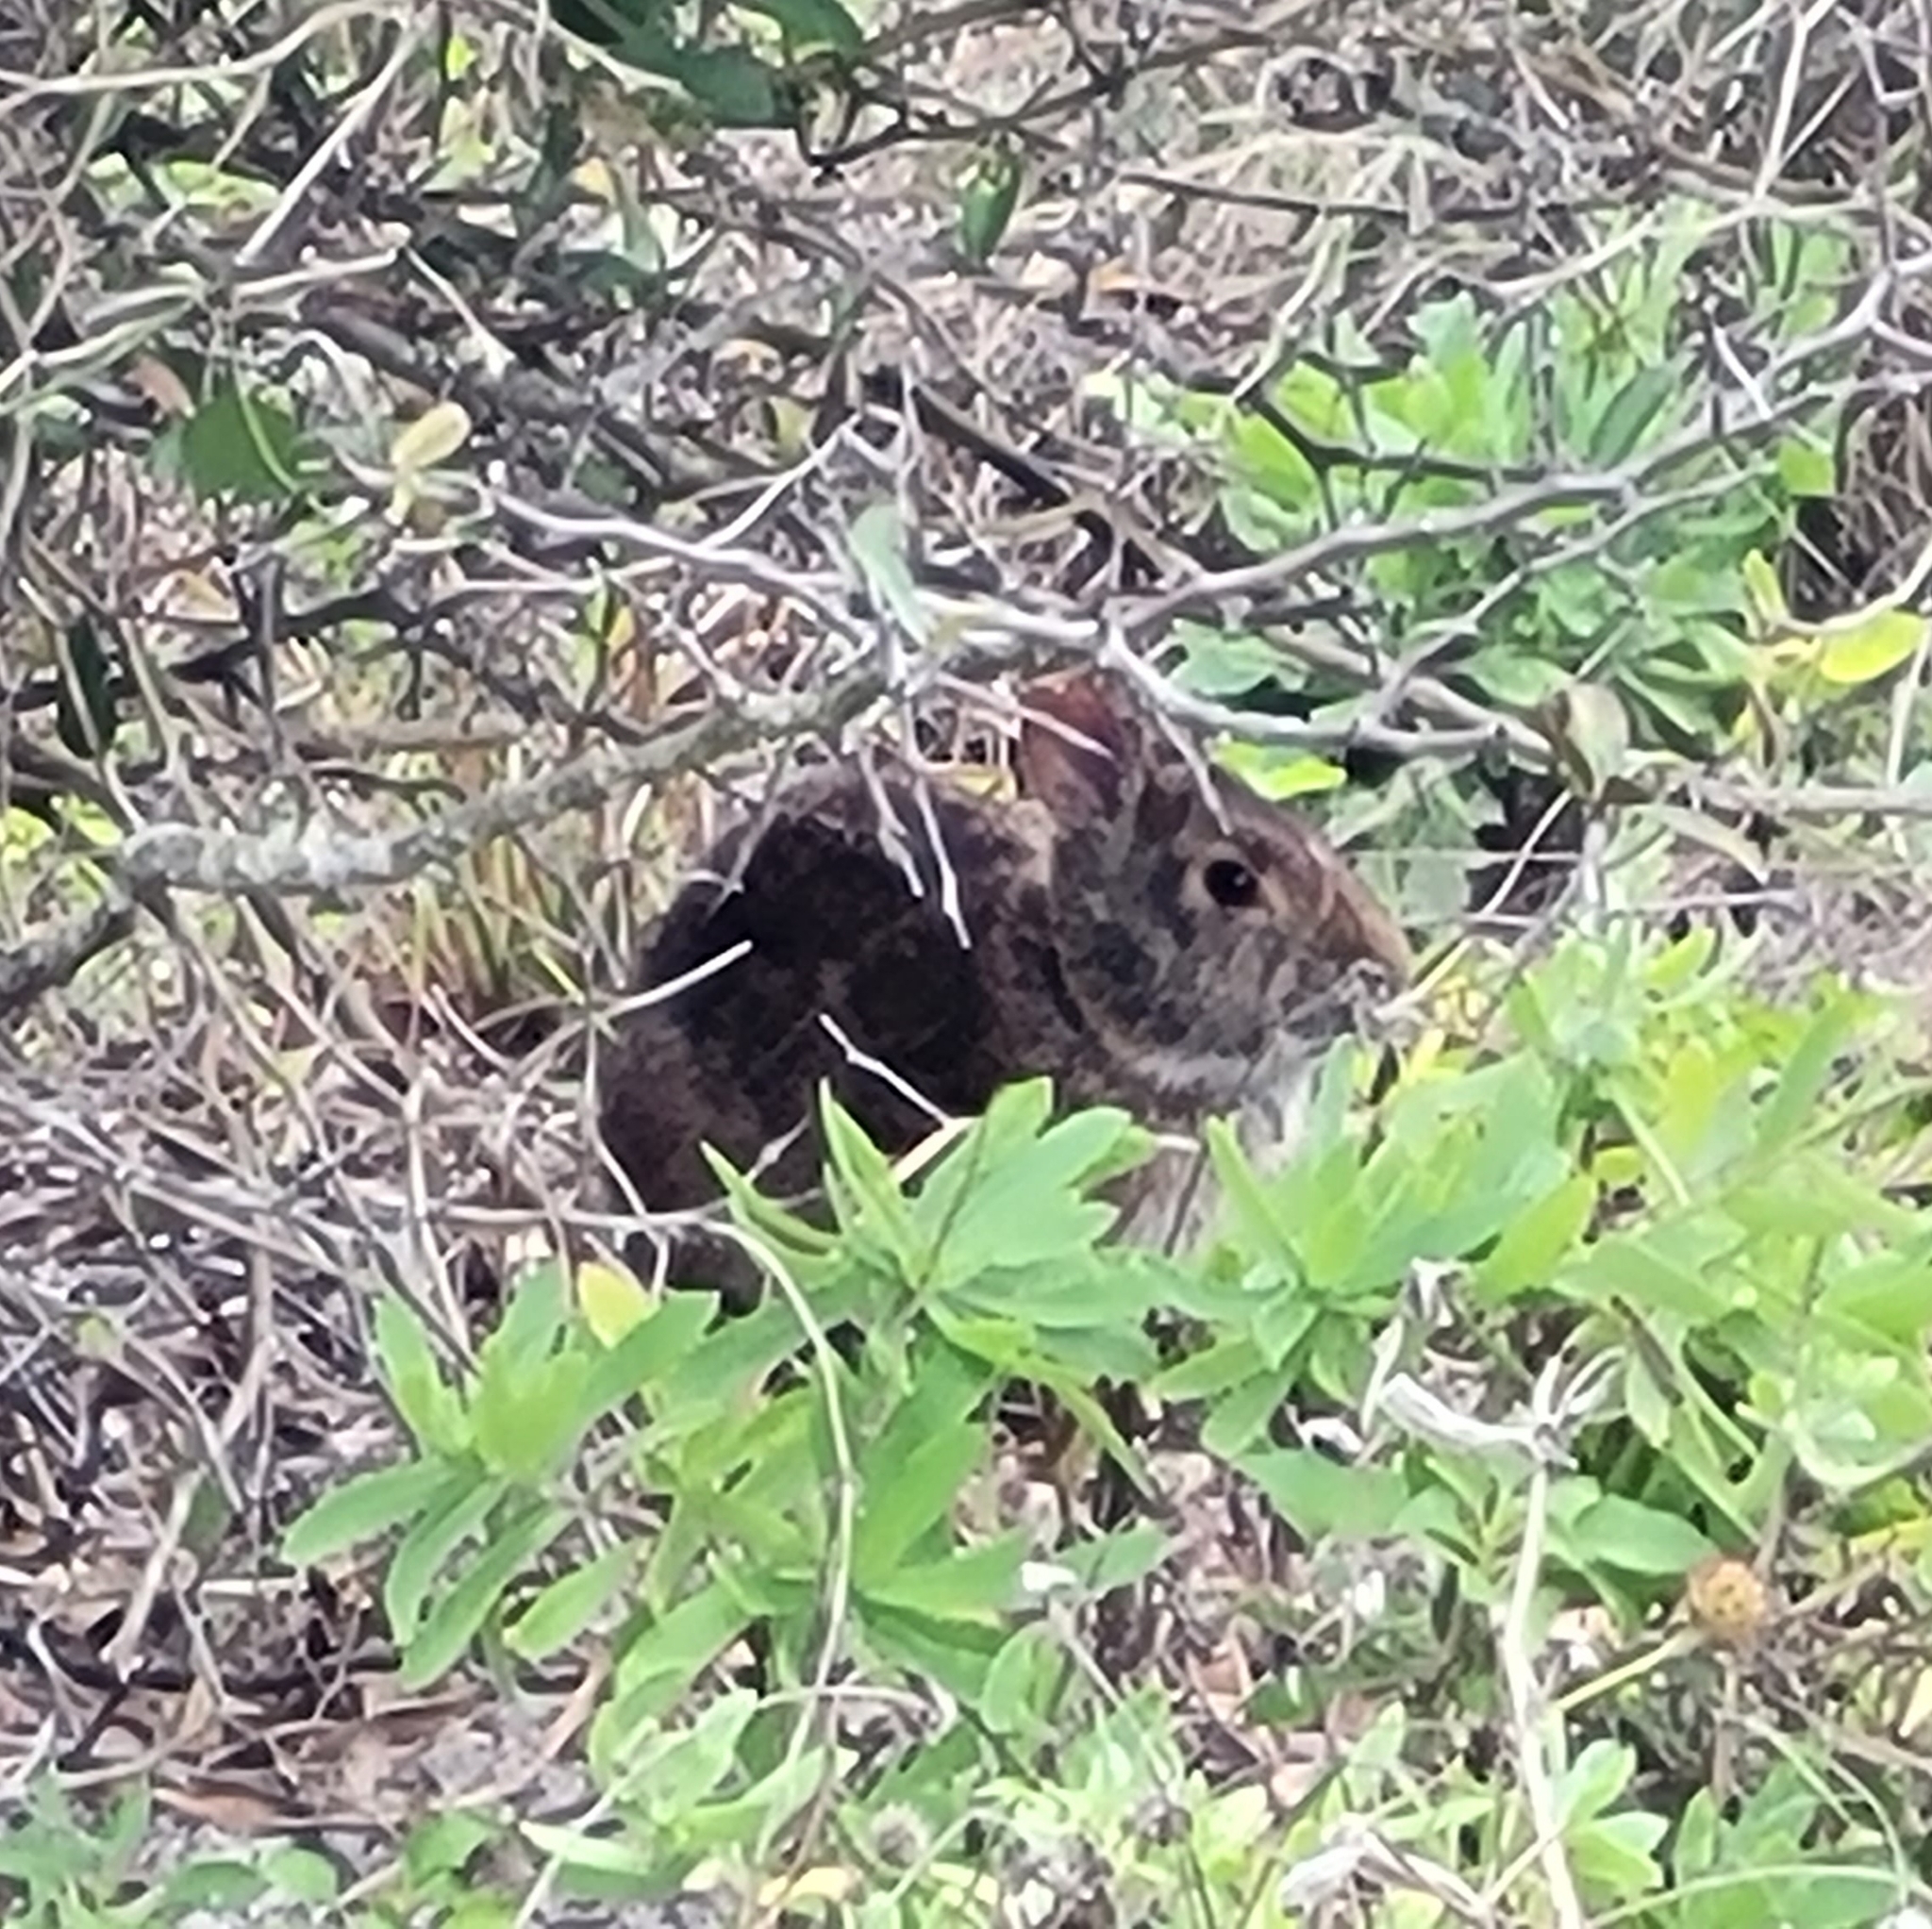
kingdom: Animalia
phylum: Chordata
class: Mammalia
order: Lagomorpha
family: Leporidae
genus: Sylvilagus
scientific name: Sylvilagus palustris
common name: Marsh rabbit
